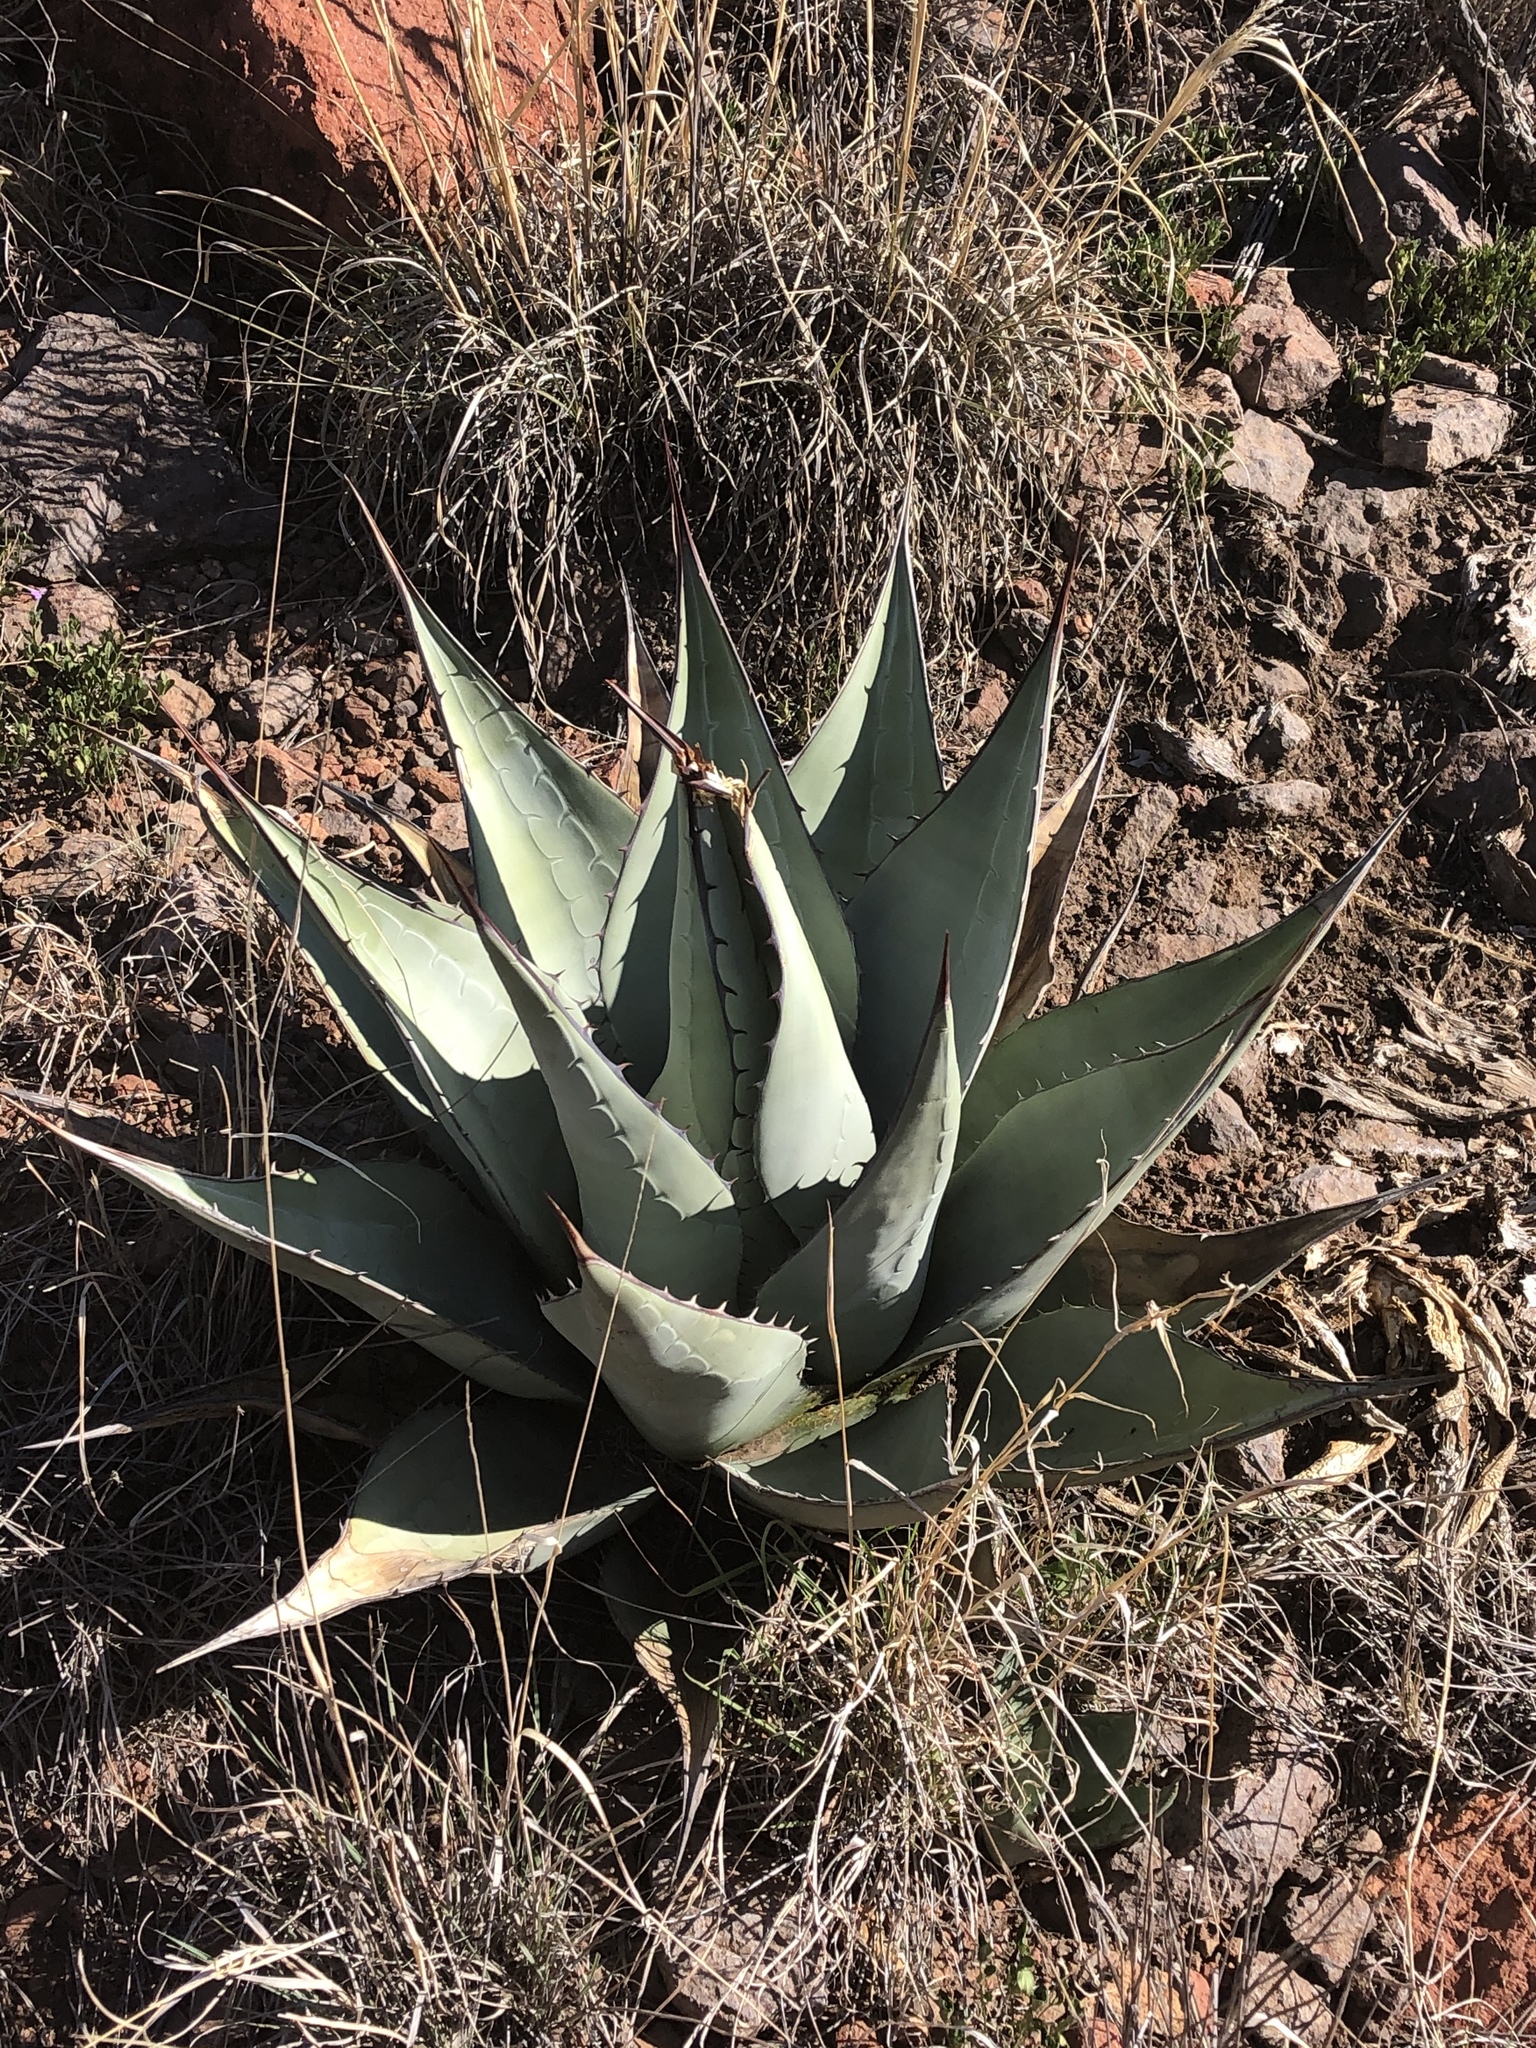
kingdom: Plantae
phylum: Tracheophyta
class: Liliopsida
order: Asparagales
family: Asparagaceae
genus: Agave
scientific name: Agave havardiana
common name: Havard agave
